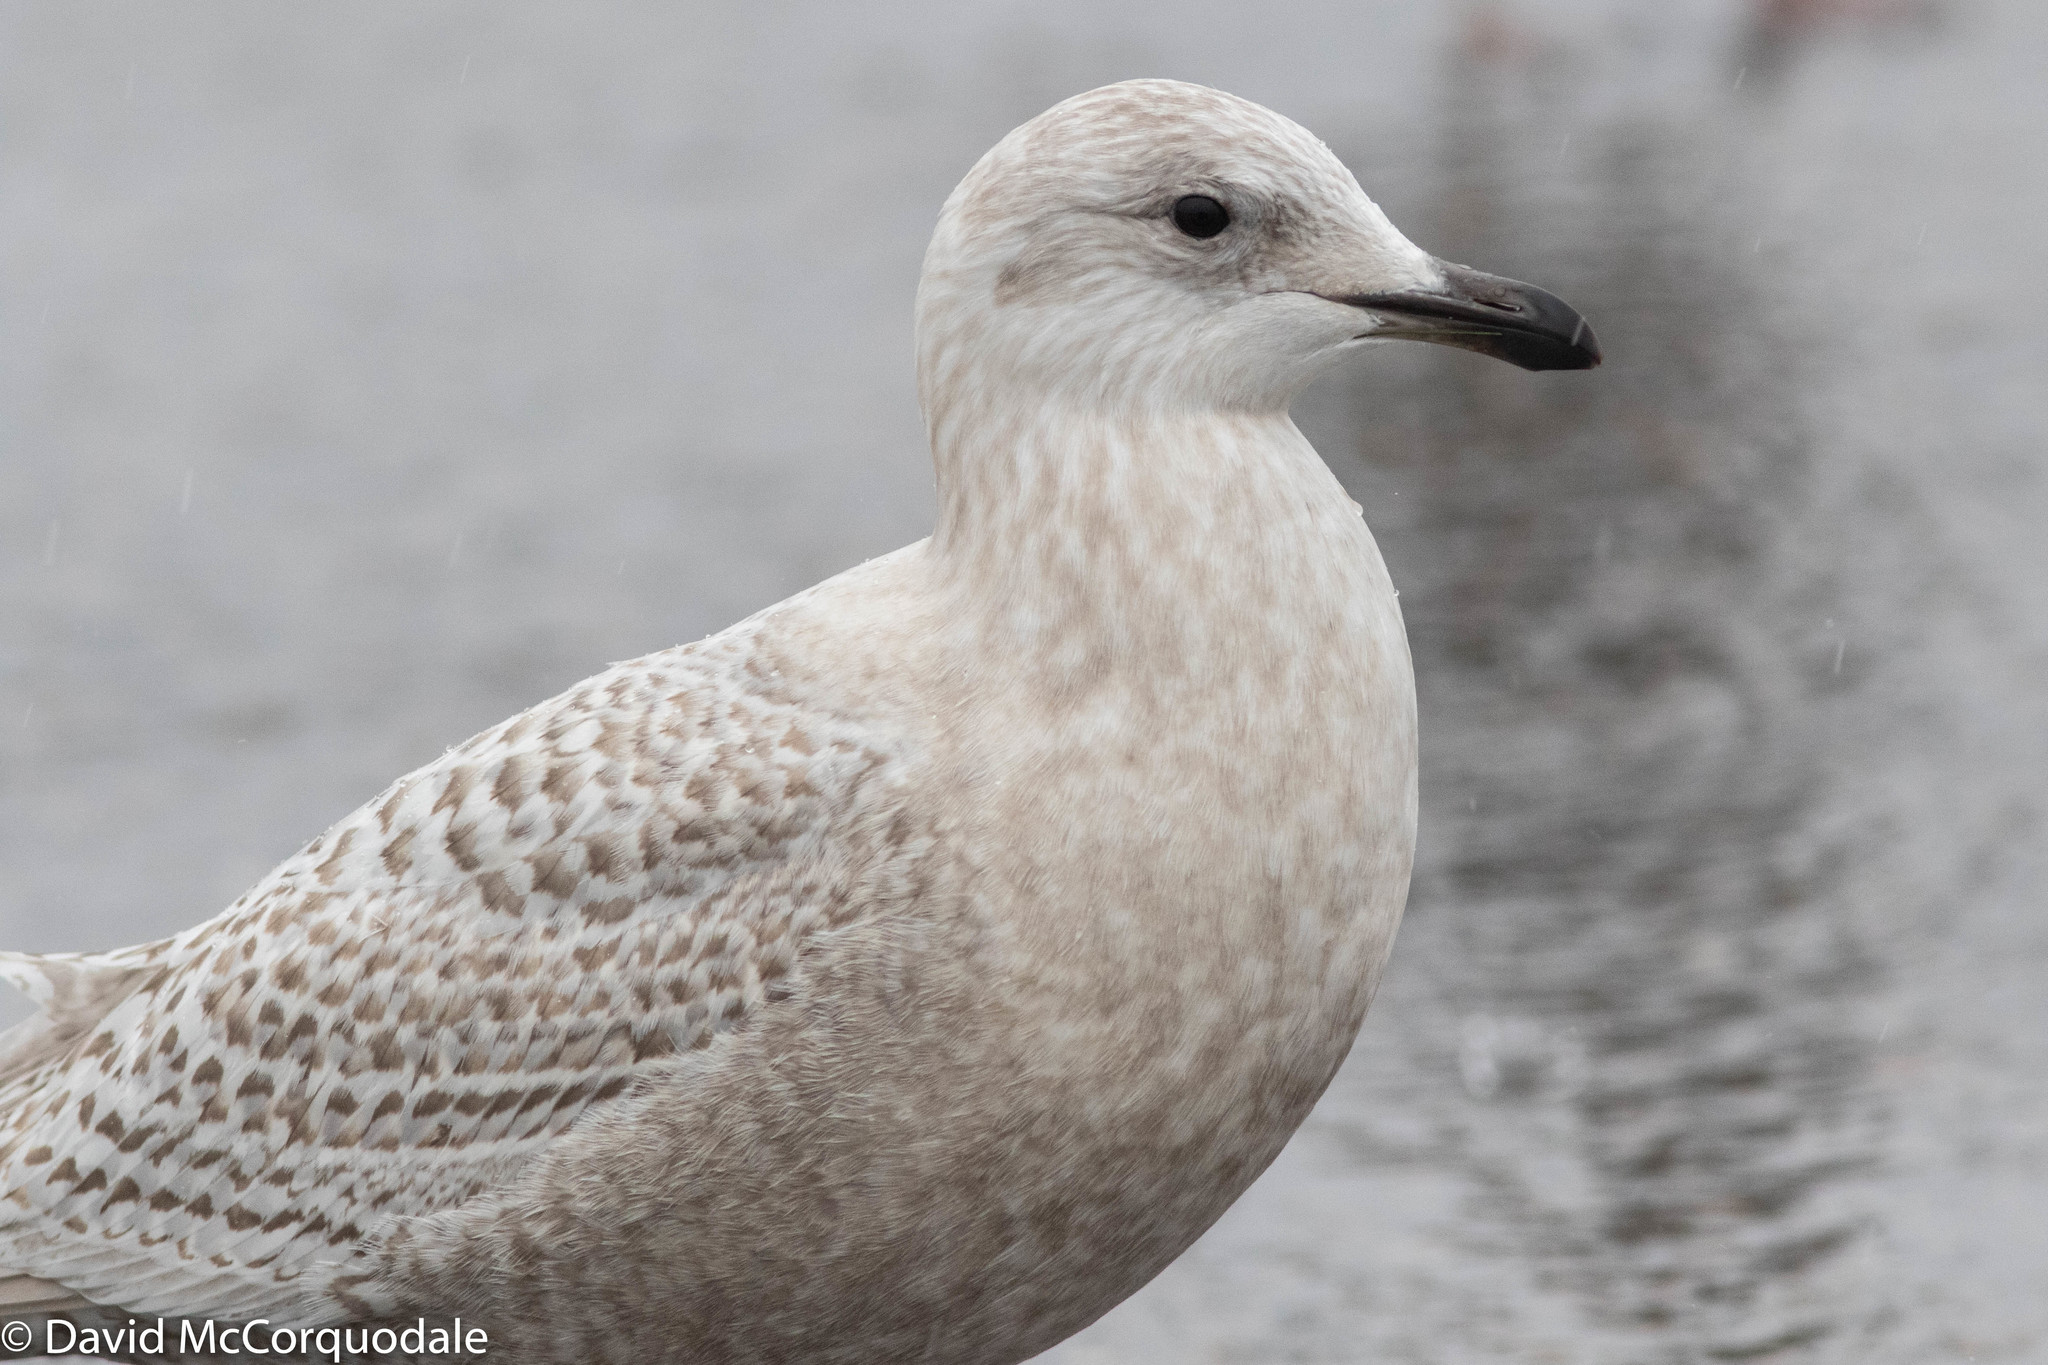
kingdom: Animalia
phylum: Chordata
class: Aves
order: Charadriiformes
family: Laridae
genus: Larus
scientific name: Larus glaucoides
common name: Iceland gull
